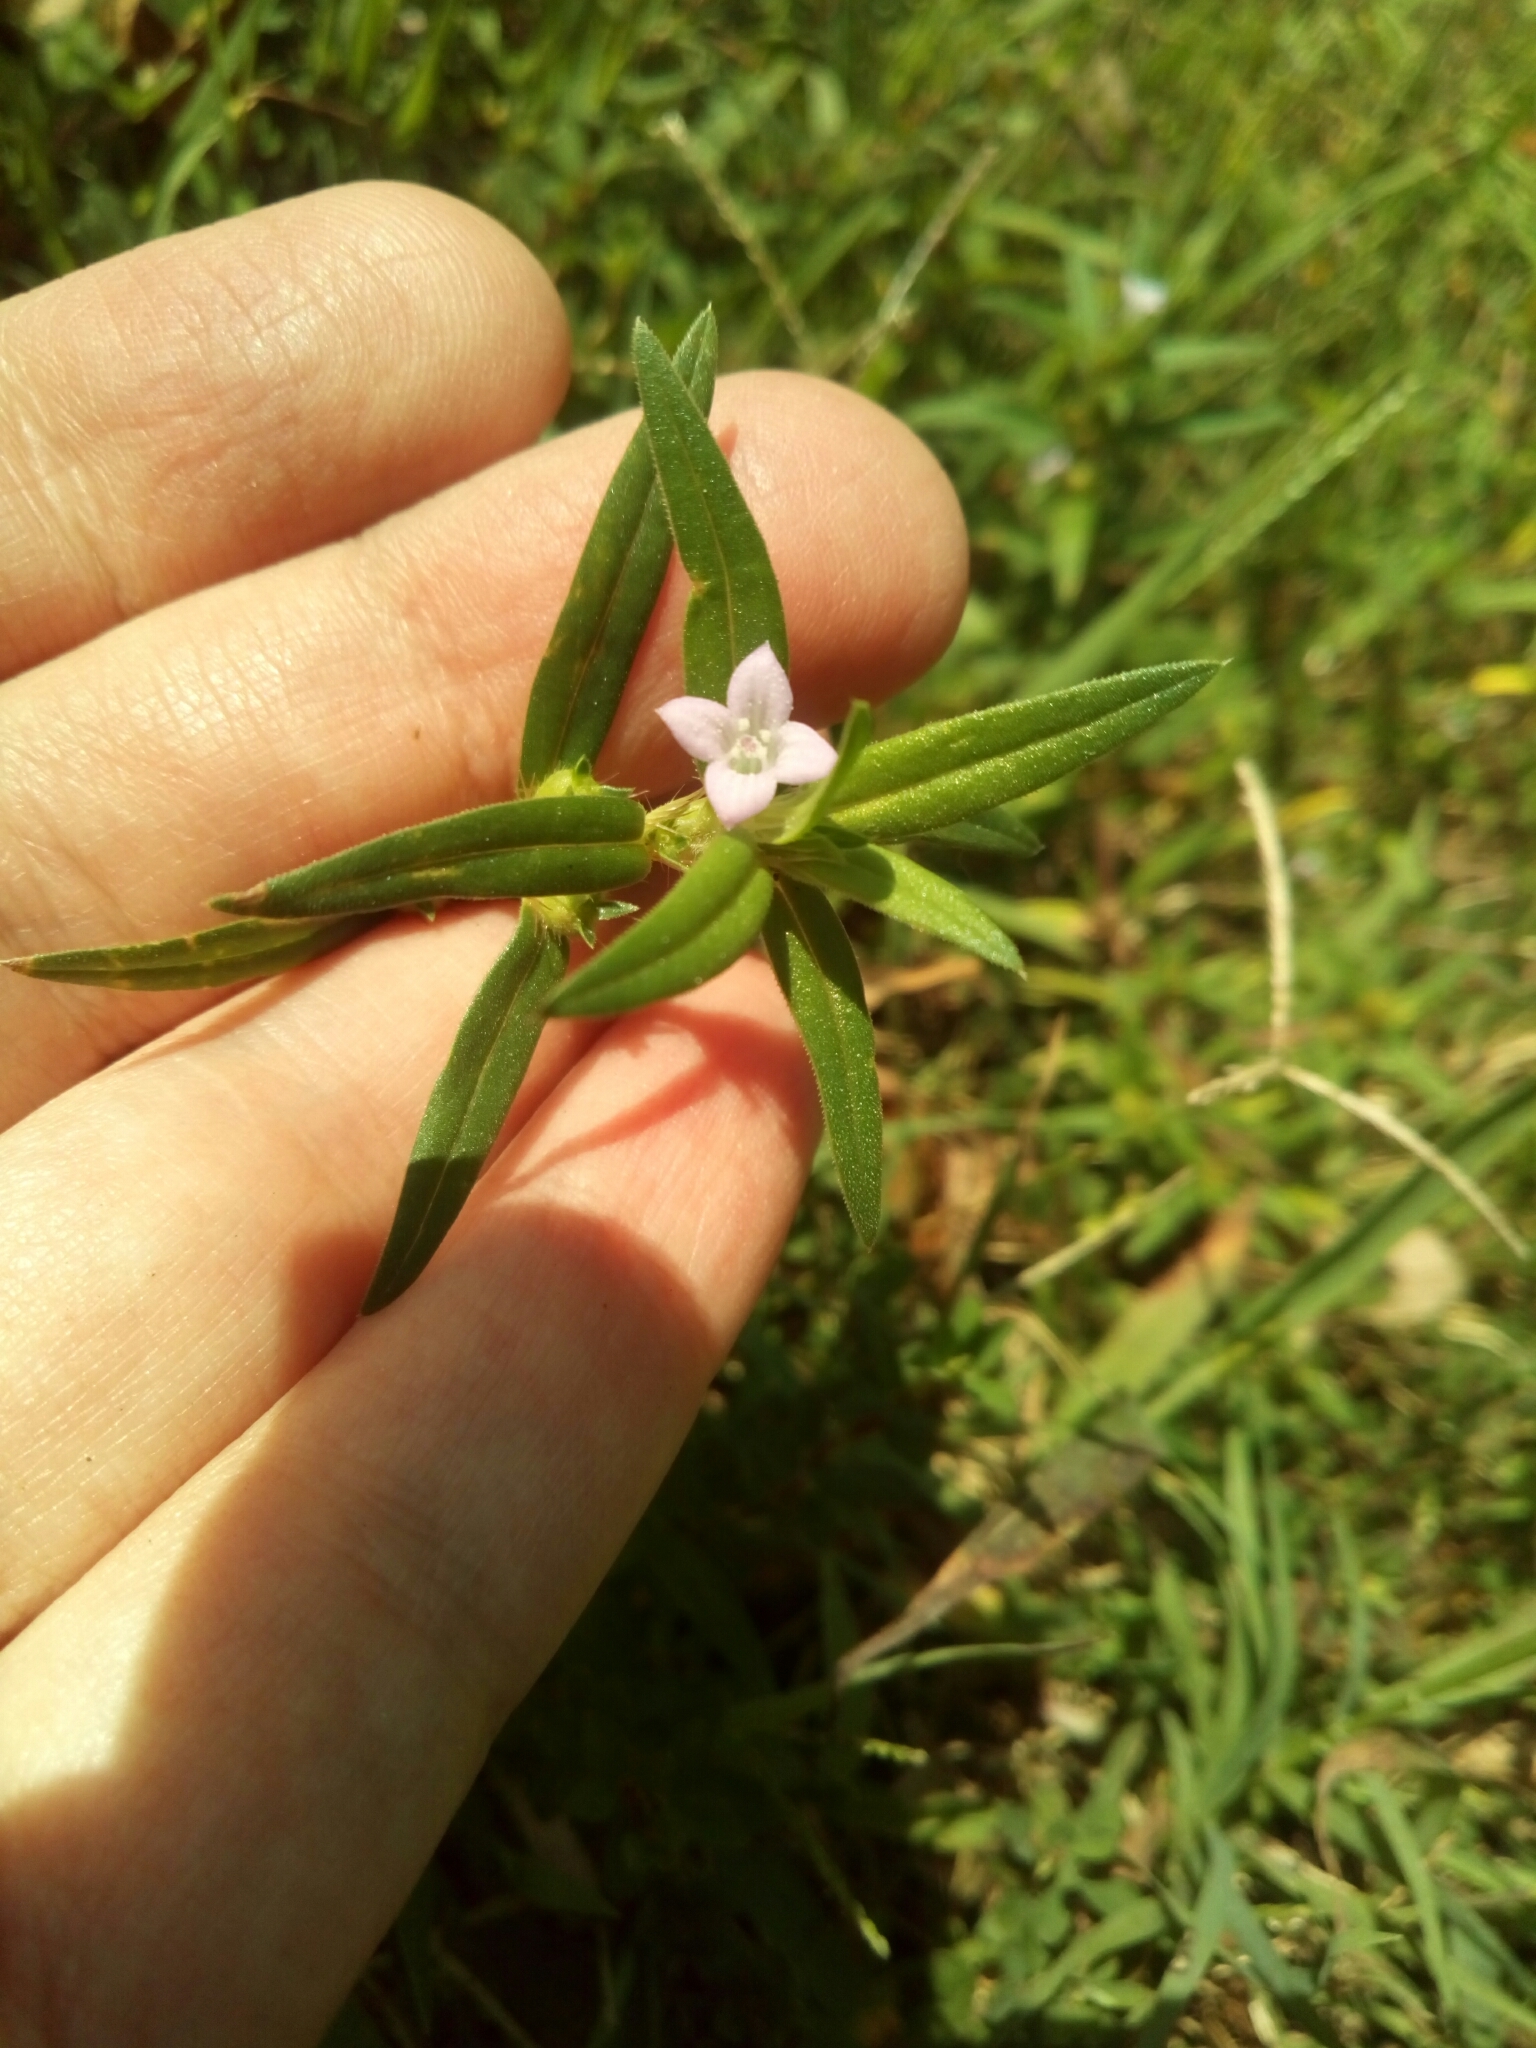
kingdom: Plantae
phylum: Tracheophyta
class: Magnoliopsida
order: Gentianales
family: Rubiaceae
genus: Hexasepalum
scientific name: Hexasepalum teres
